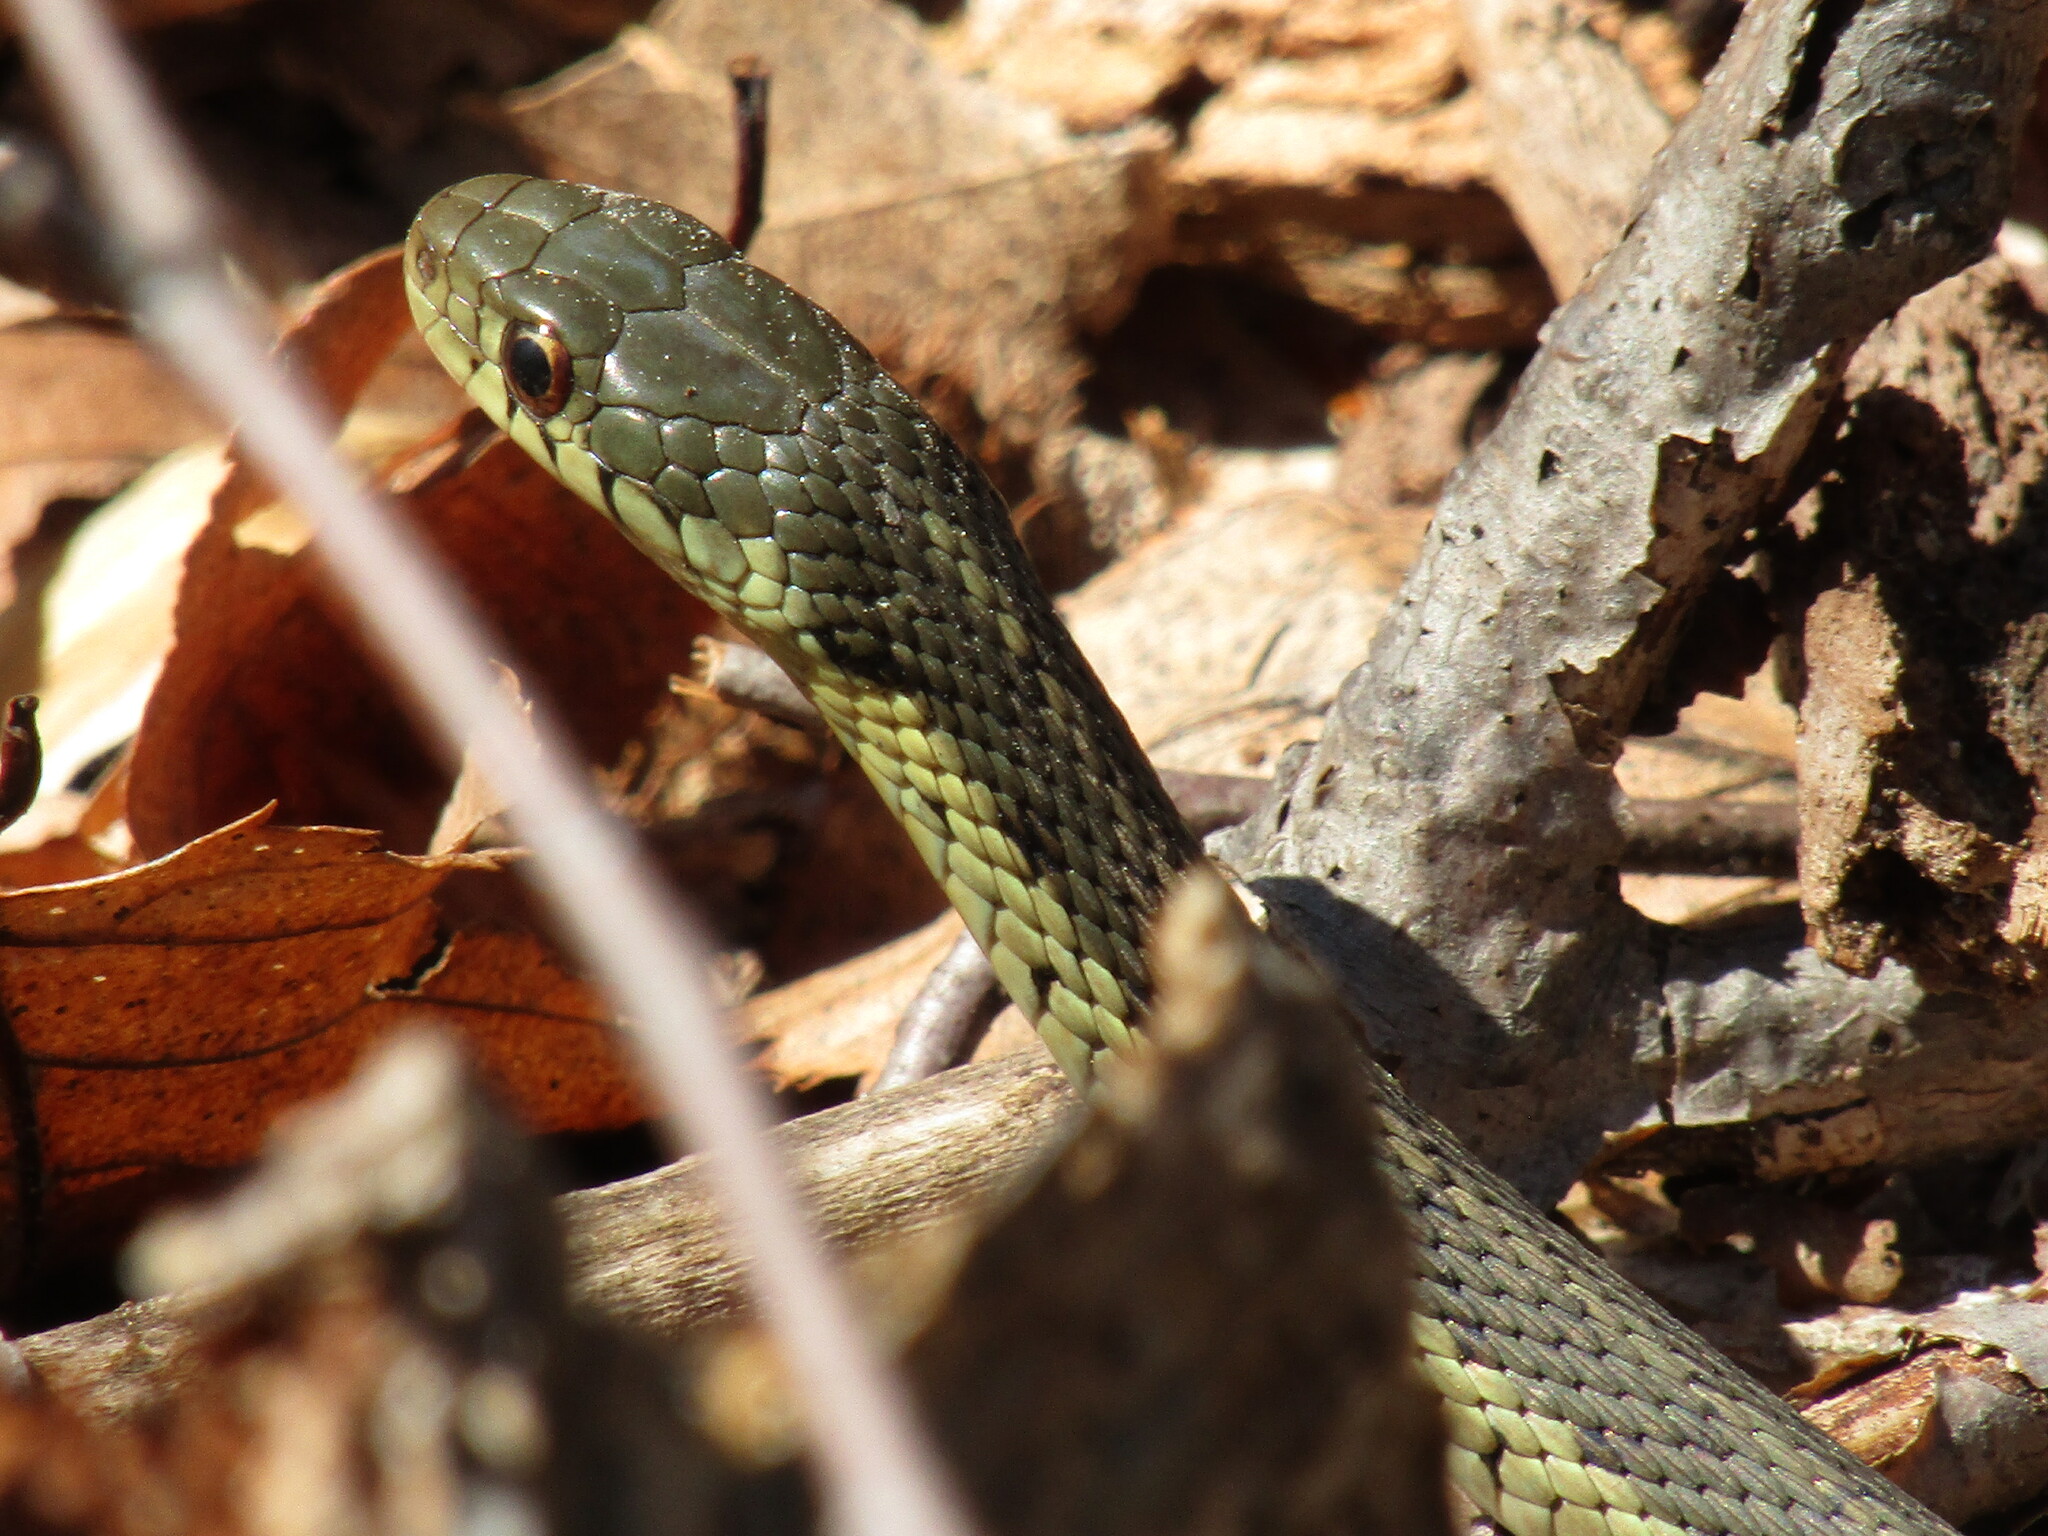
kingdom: Animalia
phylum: Chordata
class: Squamata
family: Colubridae
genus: Thamnophis
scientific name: Thamnophis sirtalis
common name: Common garter snake
